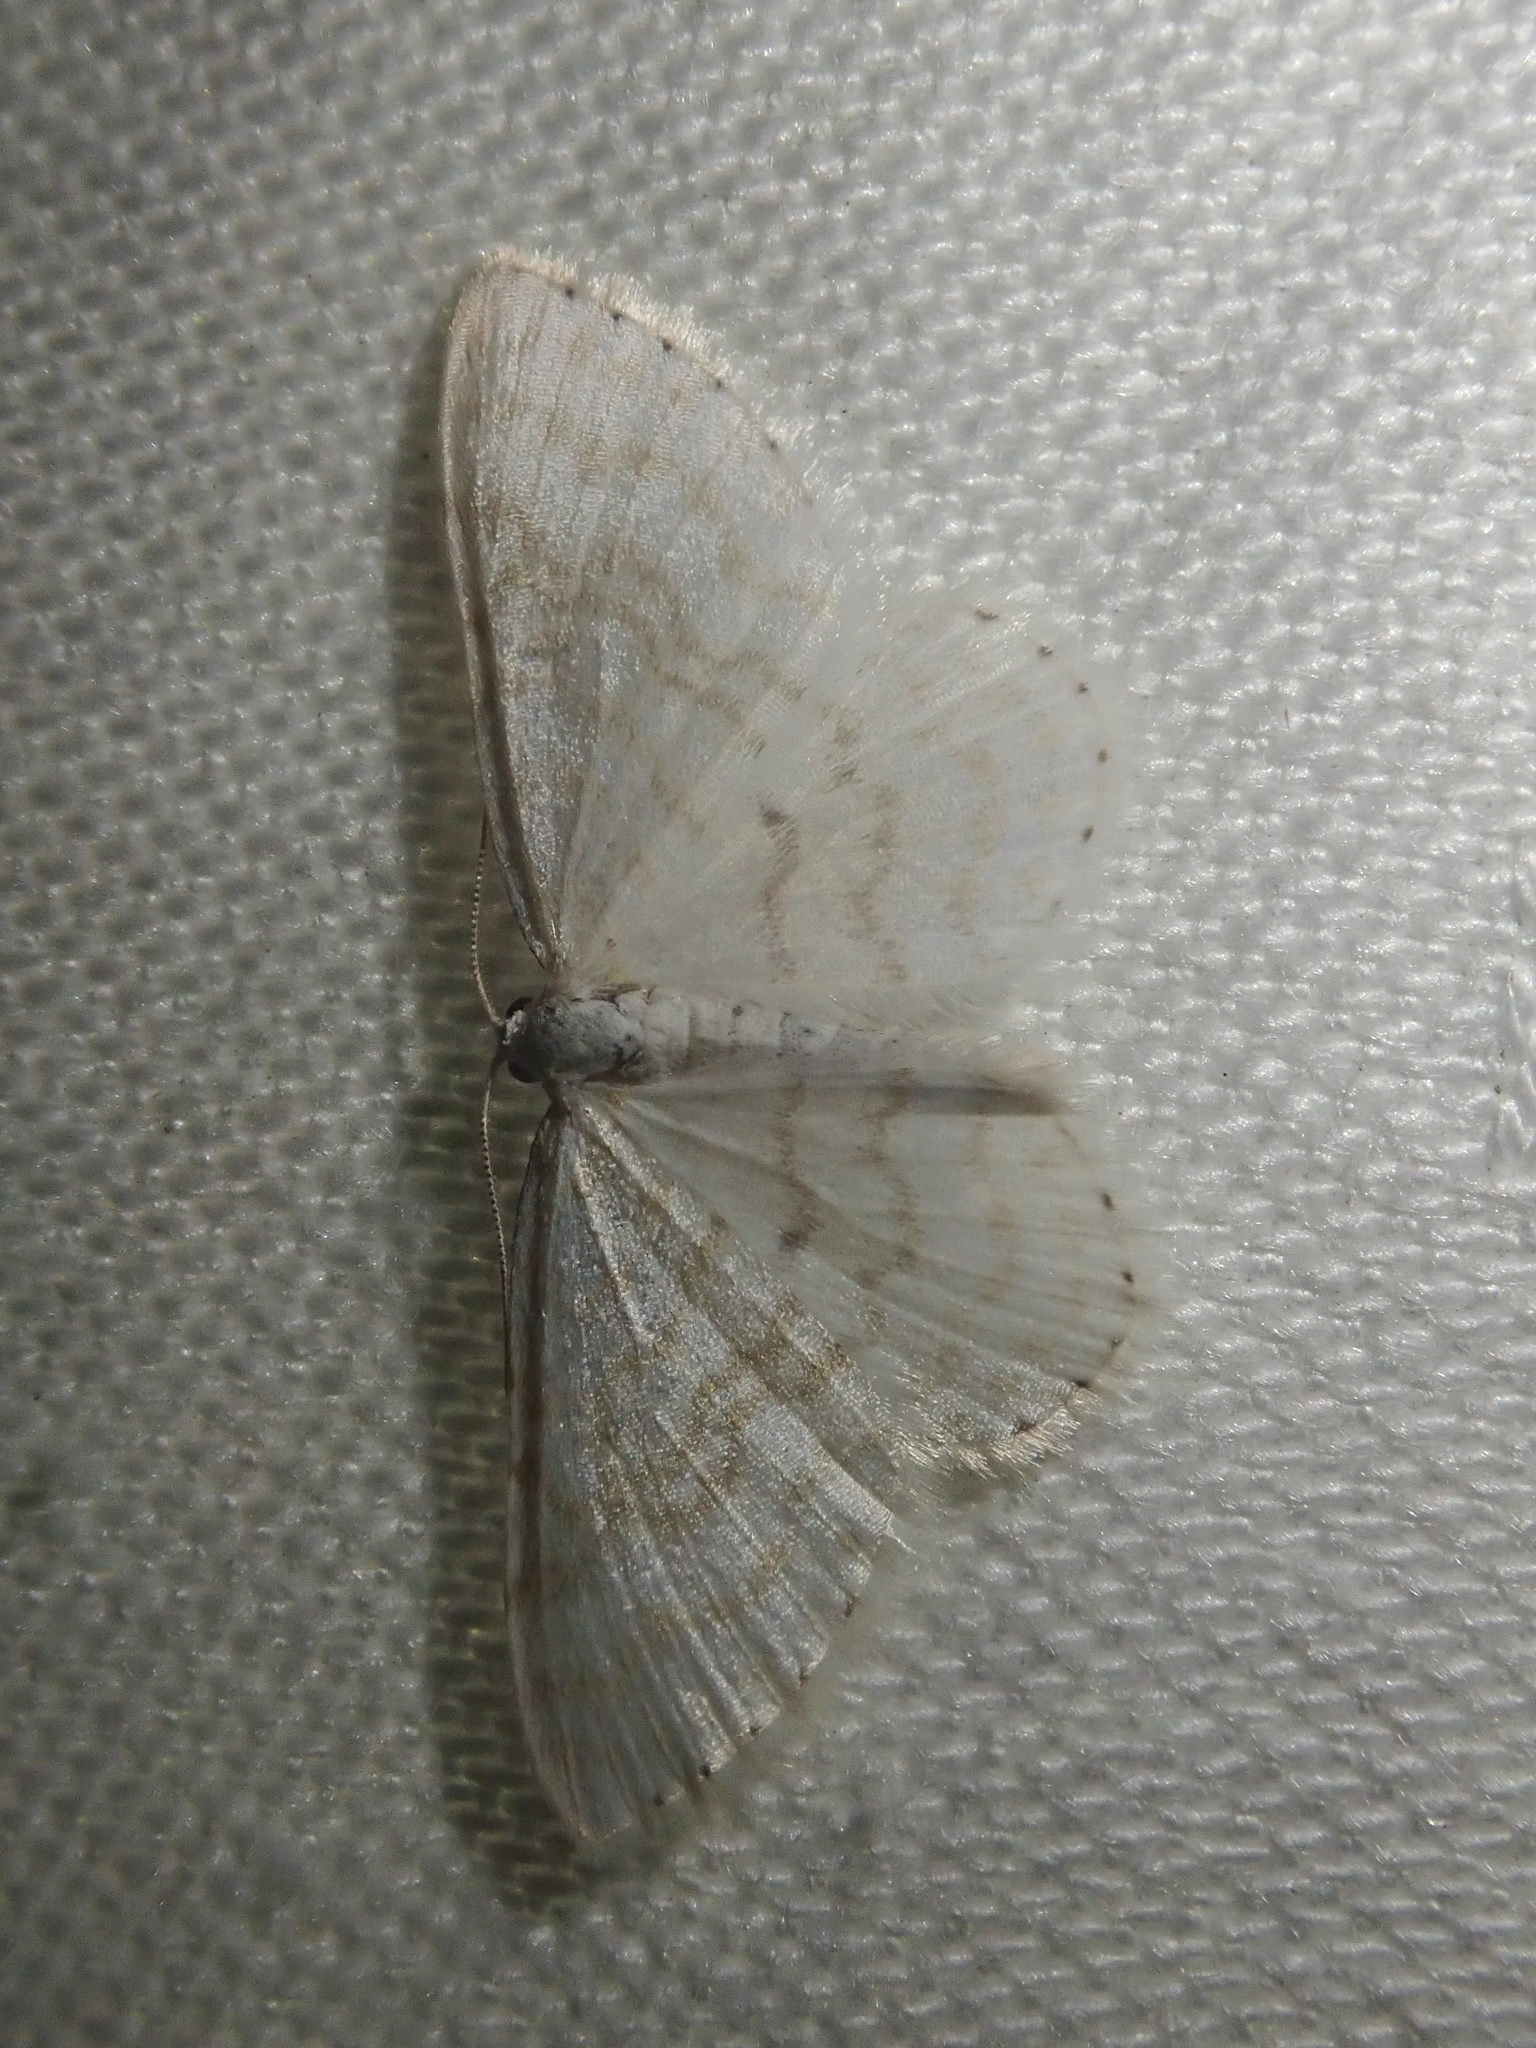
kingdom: Animalia
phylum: Arthropoda
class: Insecta
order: Lepidoptera
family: Geometridae
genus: Asthena
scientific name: Asthena albulata
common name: Small white wave
